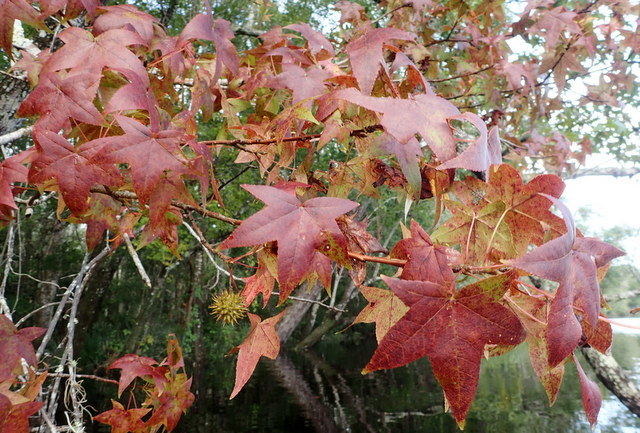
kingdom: Plantae
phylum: Tracheophyta
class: Magnoliopsida
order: Saxifragales
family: Altingiaceae
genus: Liquidambar
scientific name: Liquidambar styraciflua
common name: Sweet gum
